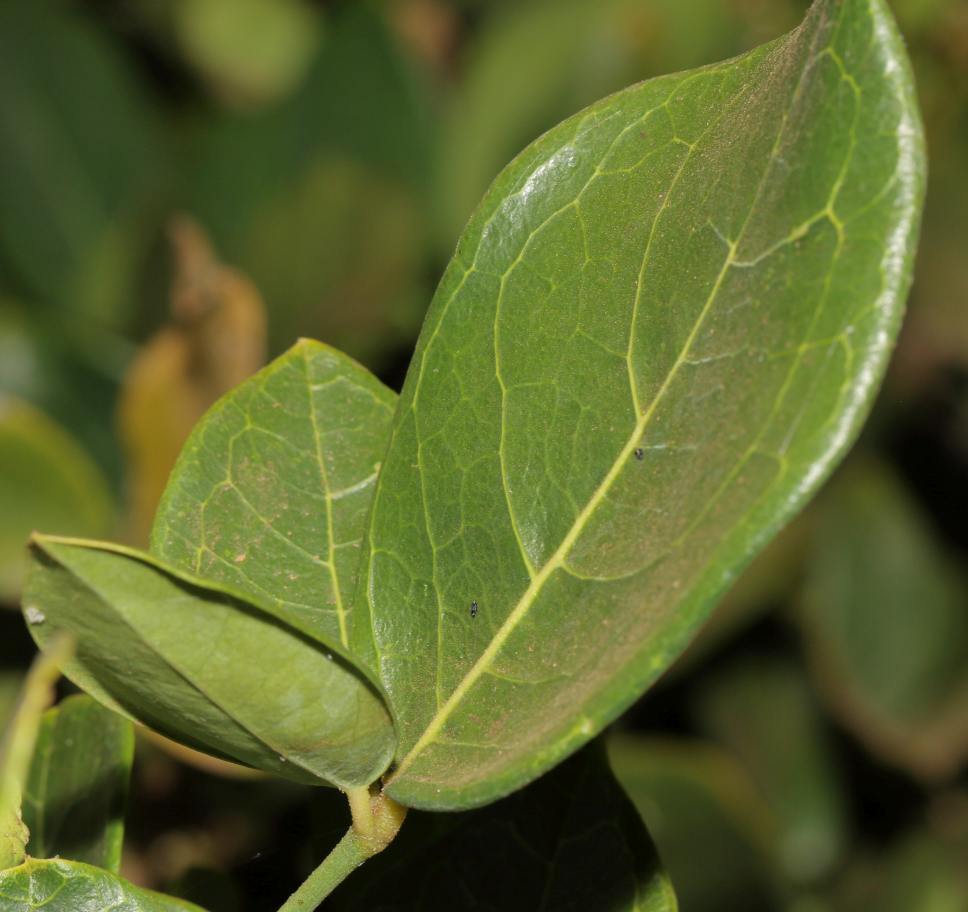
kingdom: Plantae
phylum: Tracheophyta
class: Magnoliopsida
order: Brassicales
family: Capparaceae
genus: Thilachium
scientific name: Thilachium africanum
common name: Cucumber bush
